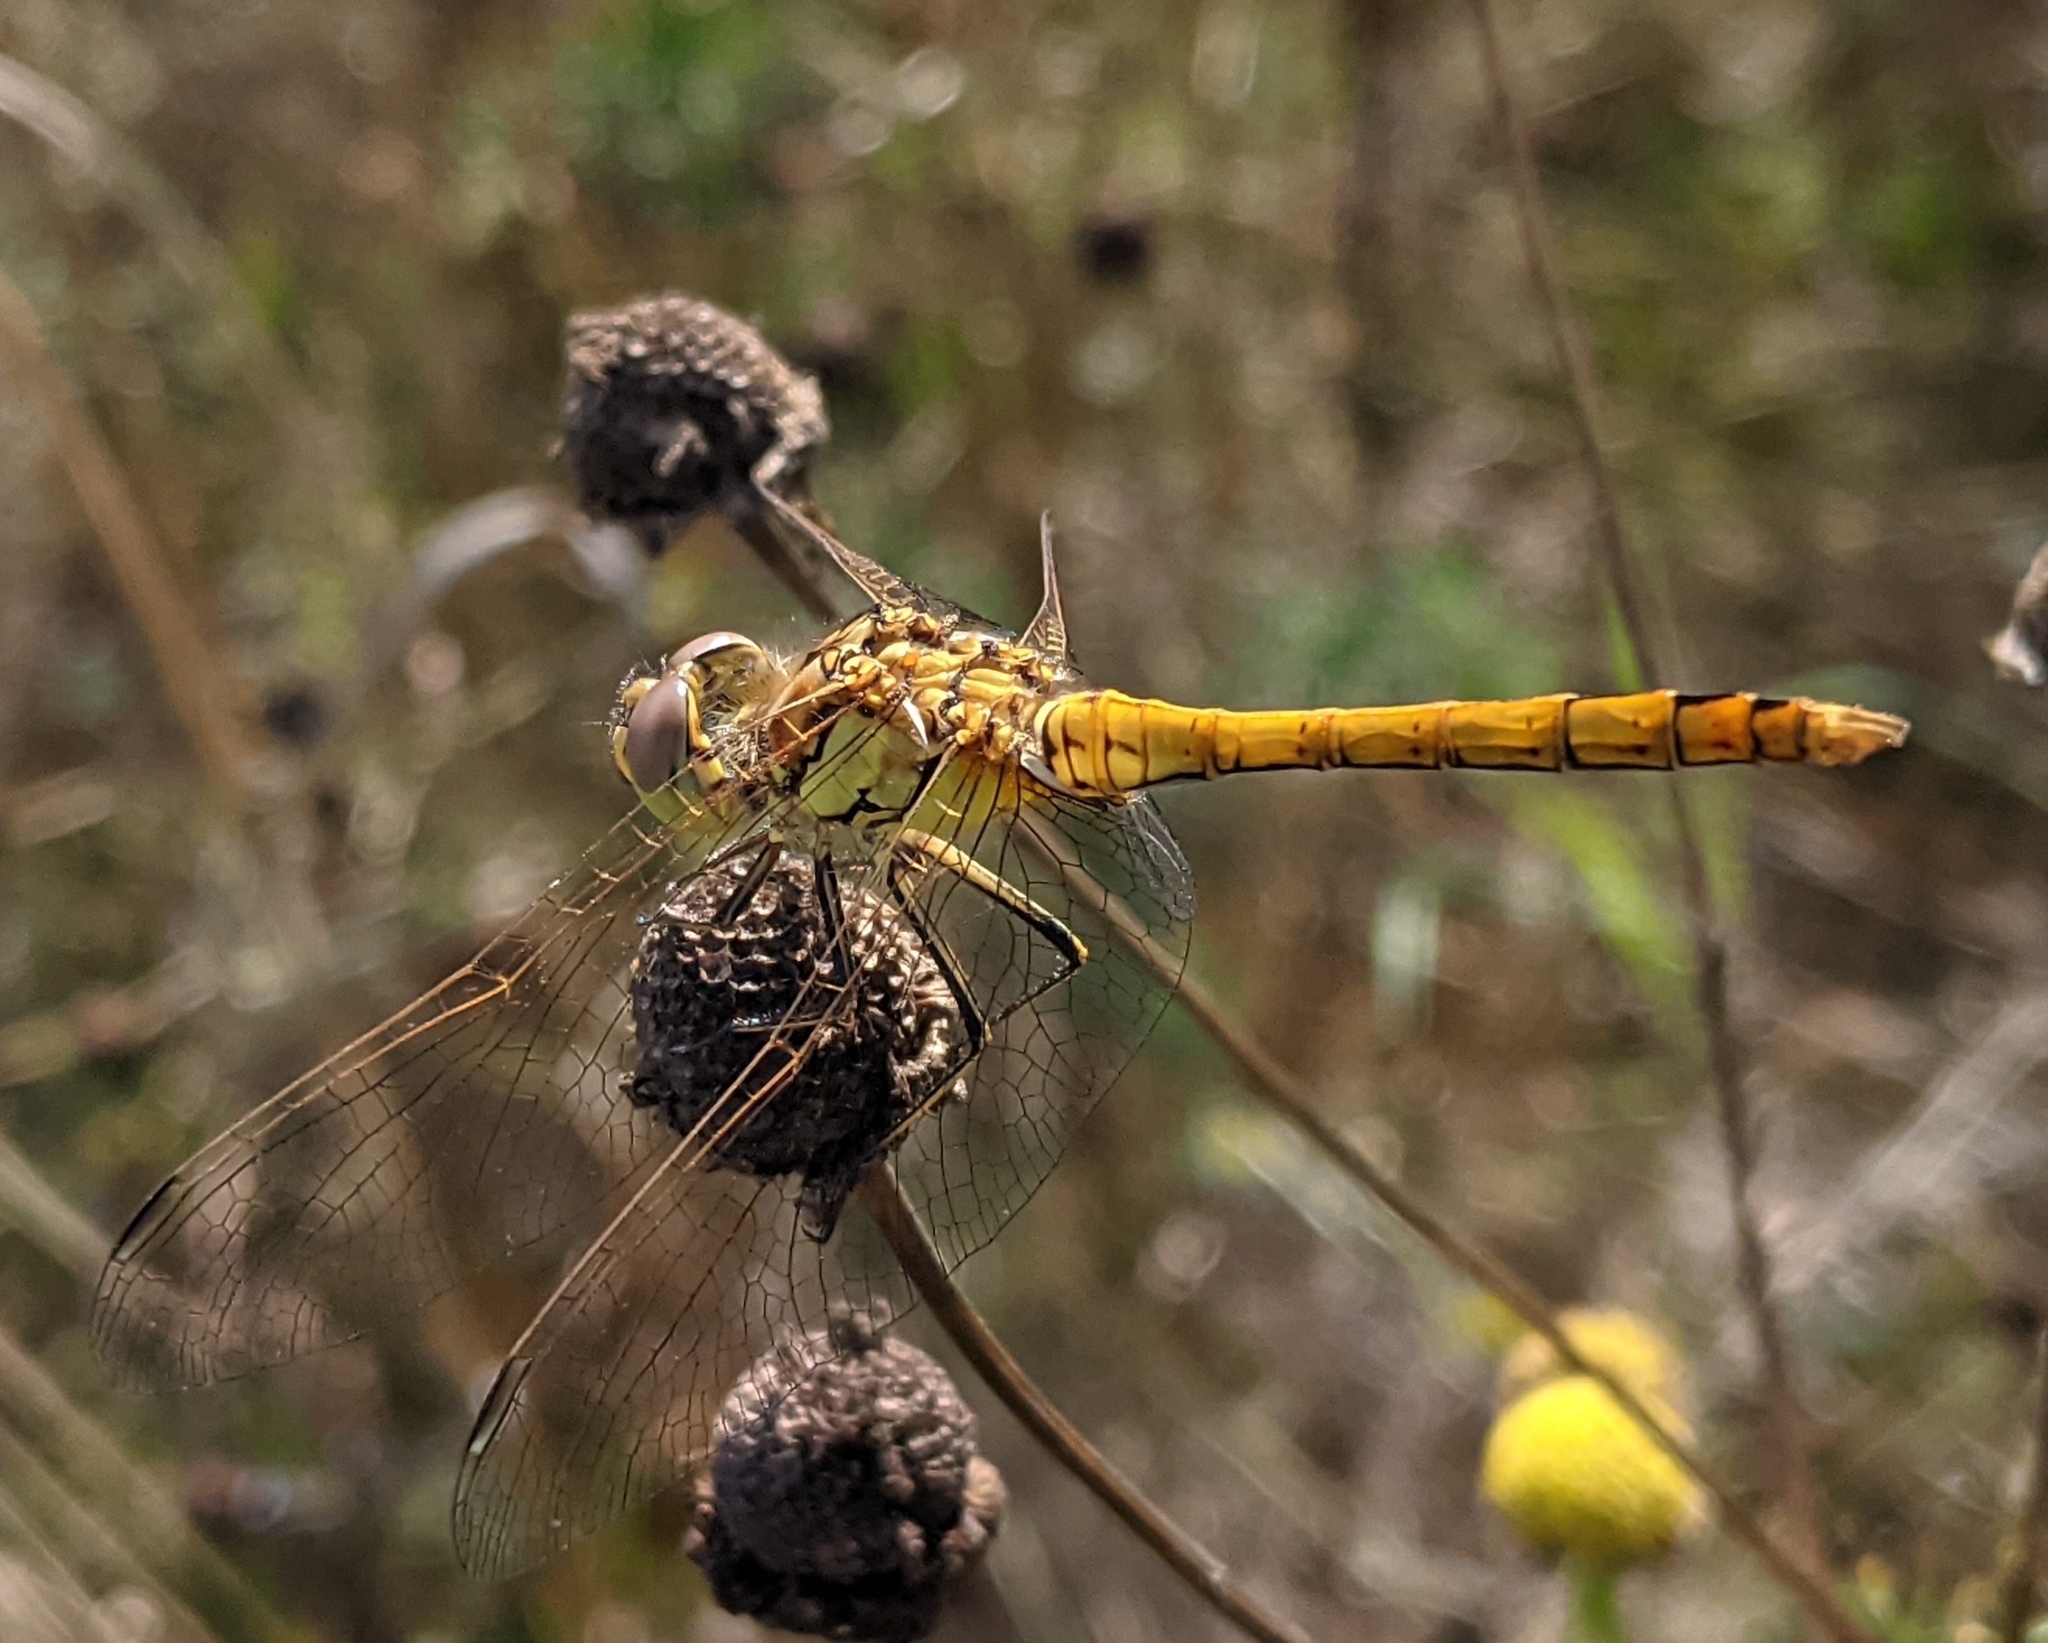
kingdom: Animalia
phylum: Arthropoda
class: Insecta
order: Odonata
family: Libellulidae
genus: Sympetrum
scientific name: Sympetrum vulgatum
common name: Vagrant darter
